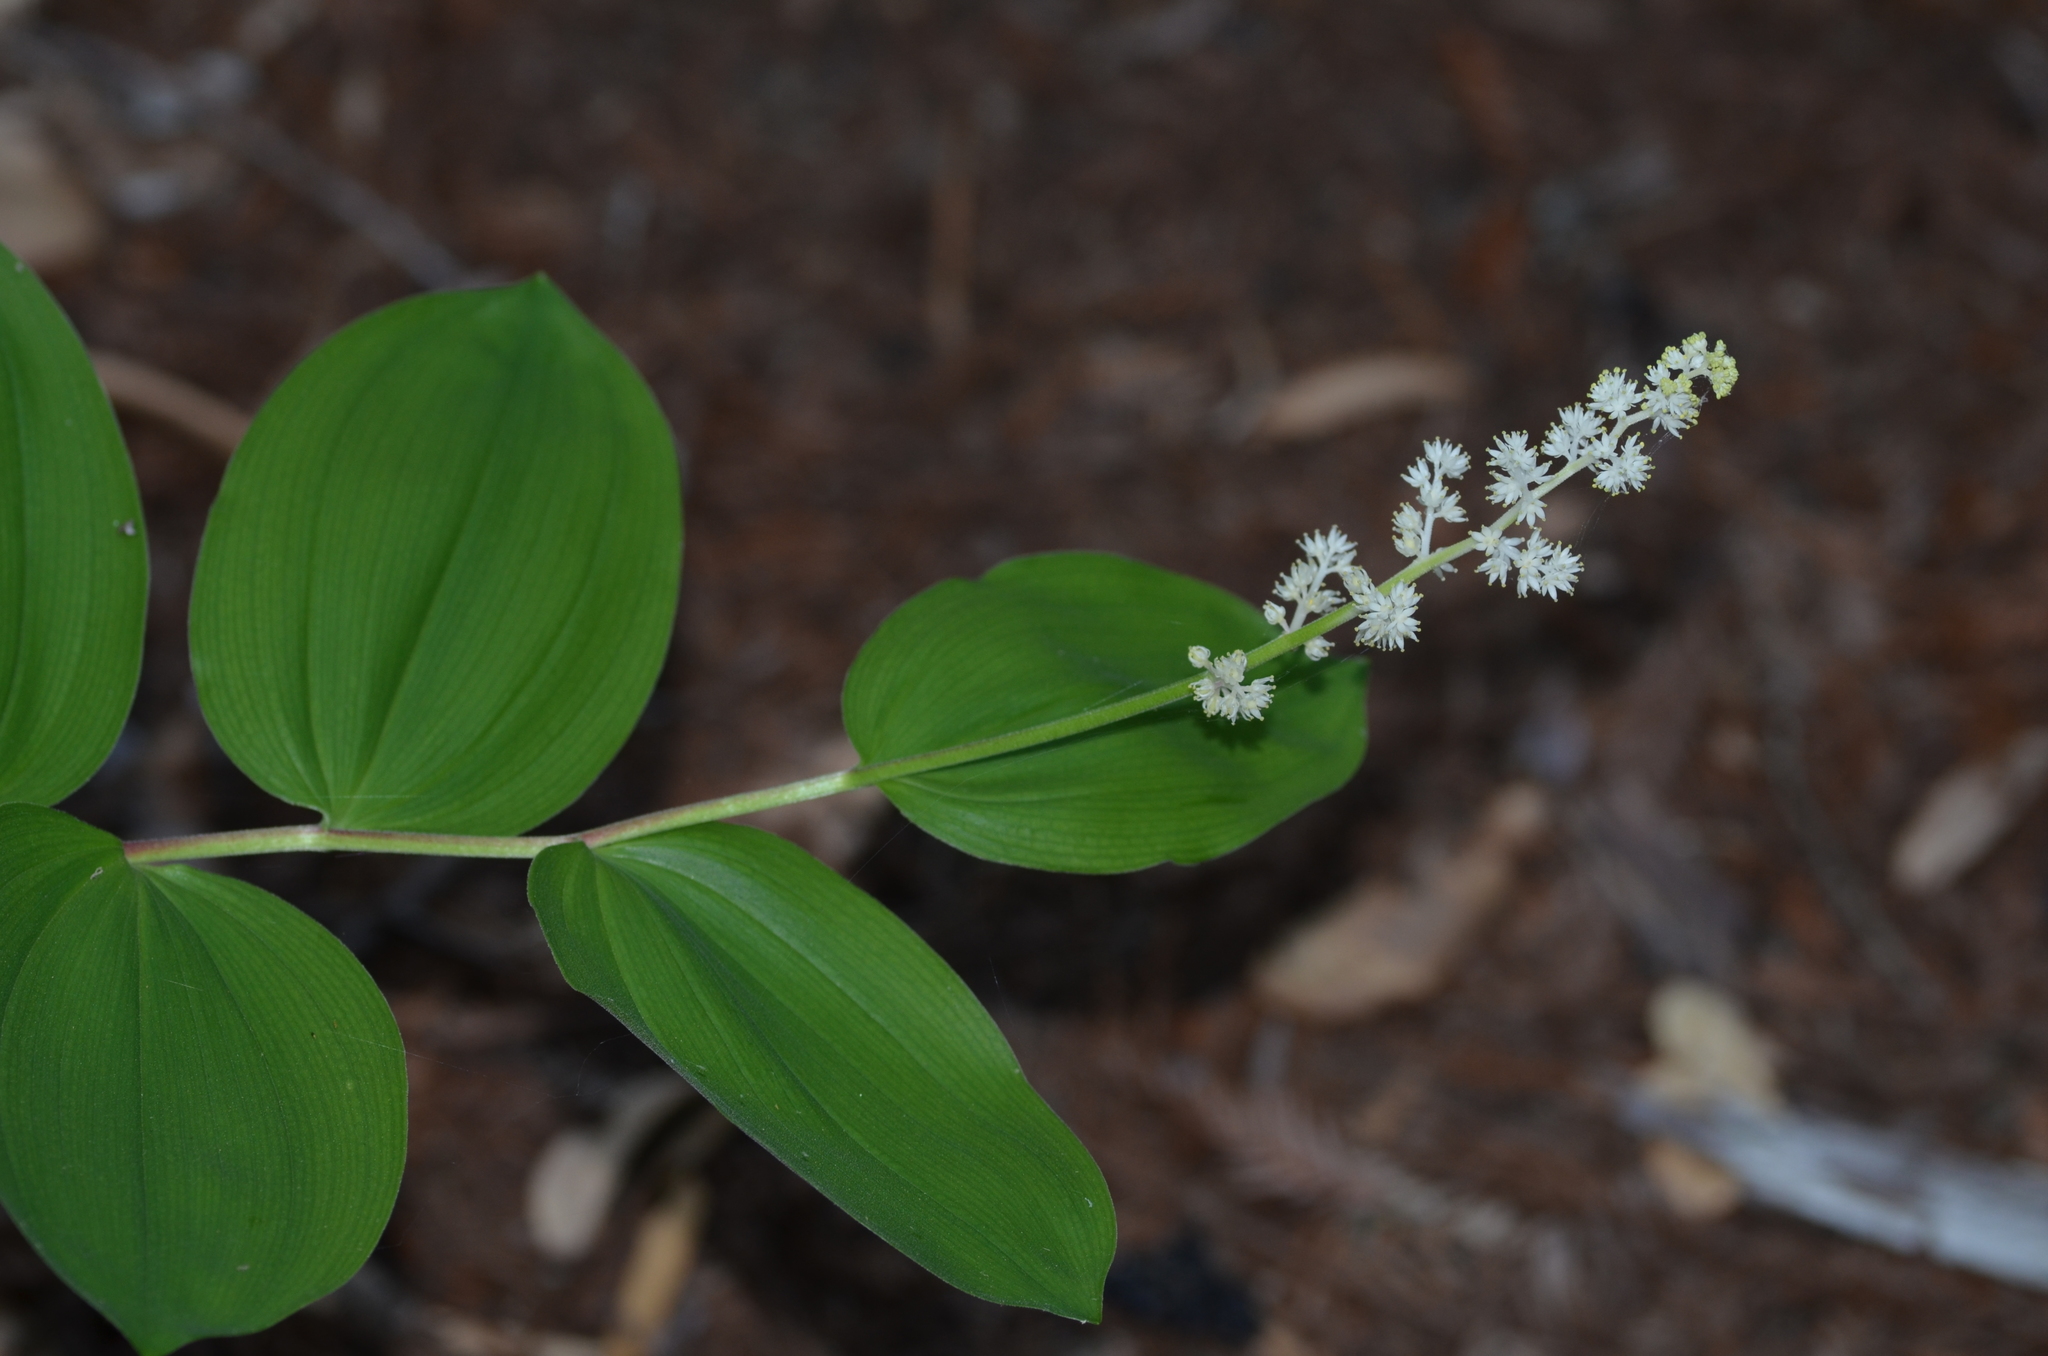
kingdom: Plantae
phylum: Tracheophyta
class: Liliopsida
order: Asparagales
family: Asparagaceae
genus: Maianthemum
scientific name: Maianthemum racemosum
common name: False spikenard
